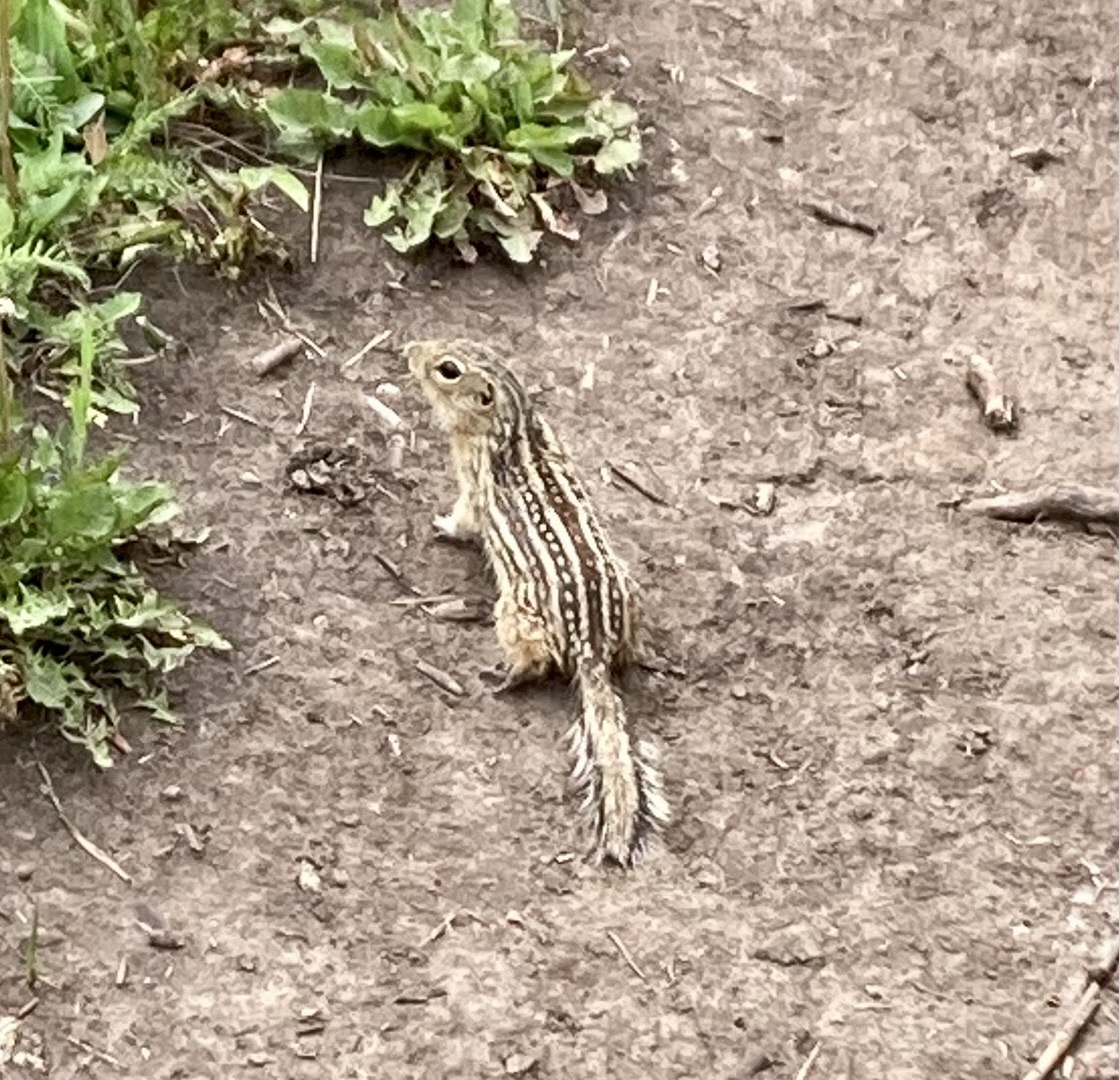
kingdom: Animalia
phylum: Chordata
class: Mammalia
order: Rodentia
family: Sciuridae
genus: Ictidomys
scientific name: Ictidomys tridecemlineatus
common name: Thirteen-lined ground squirrel
